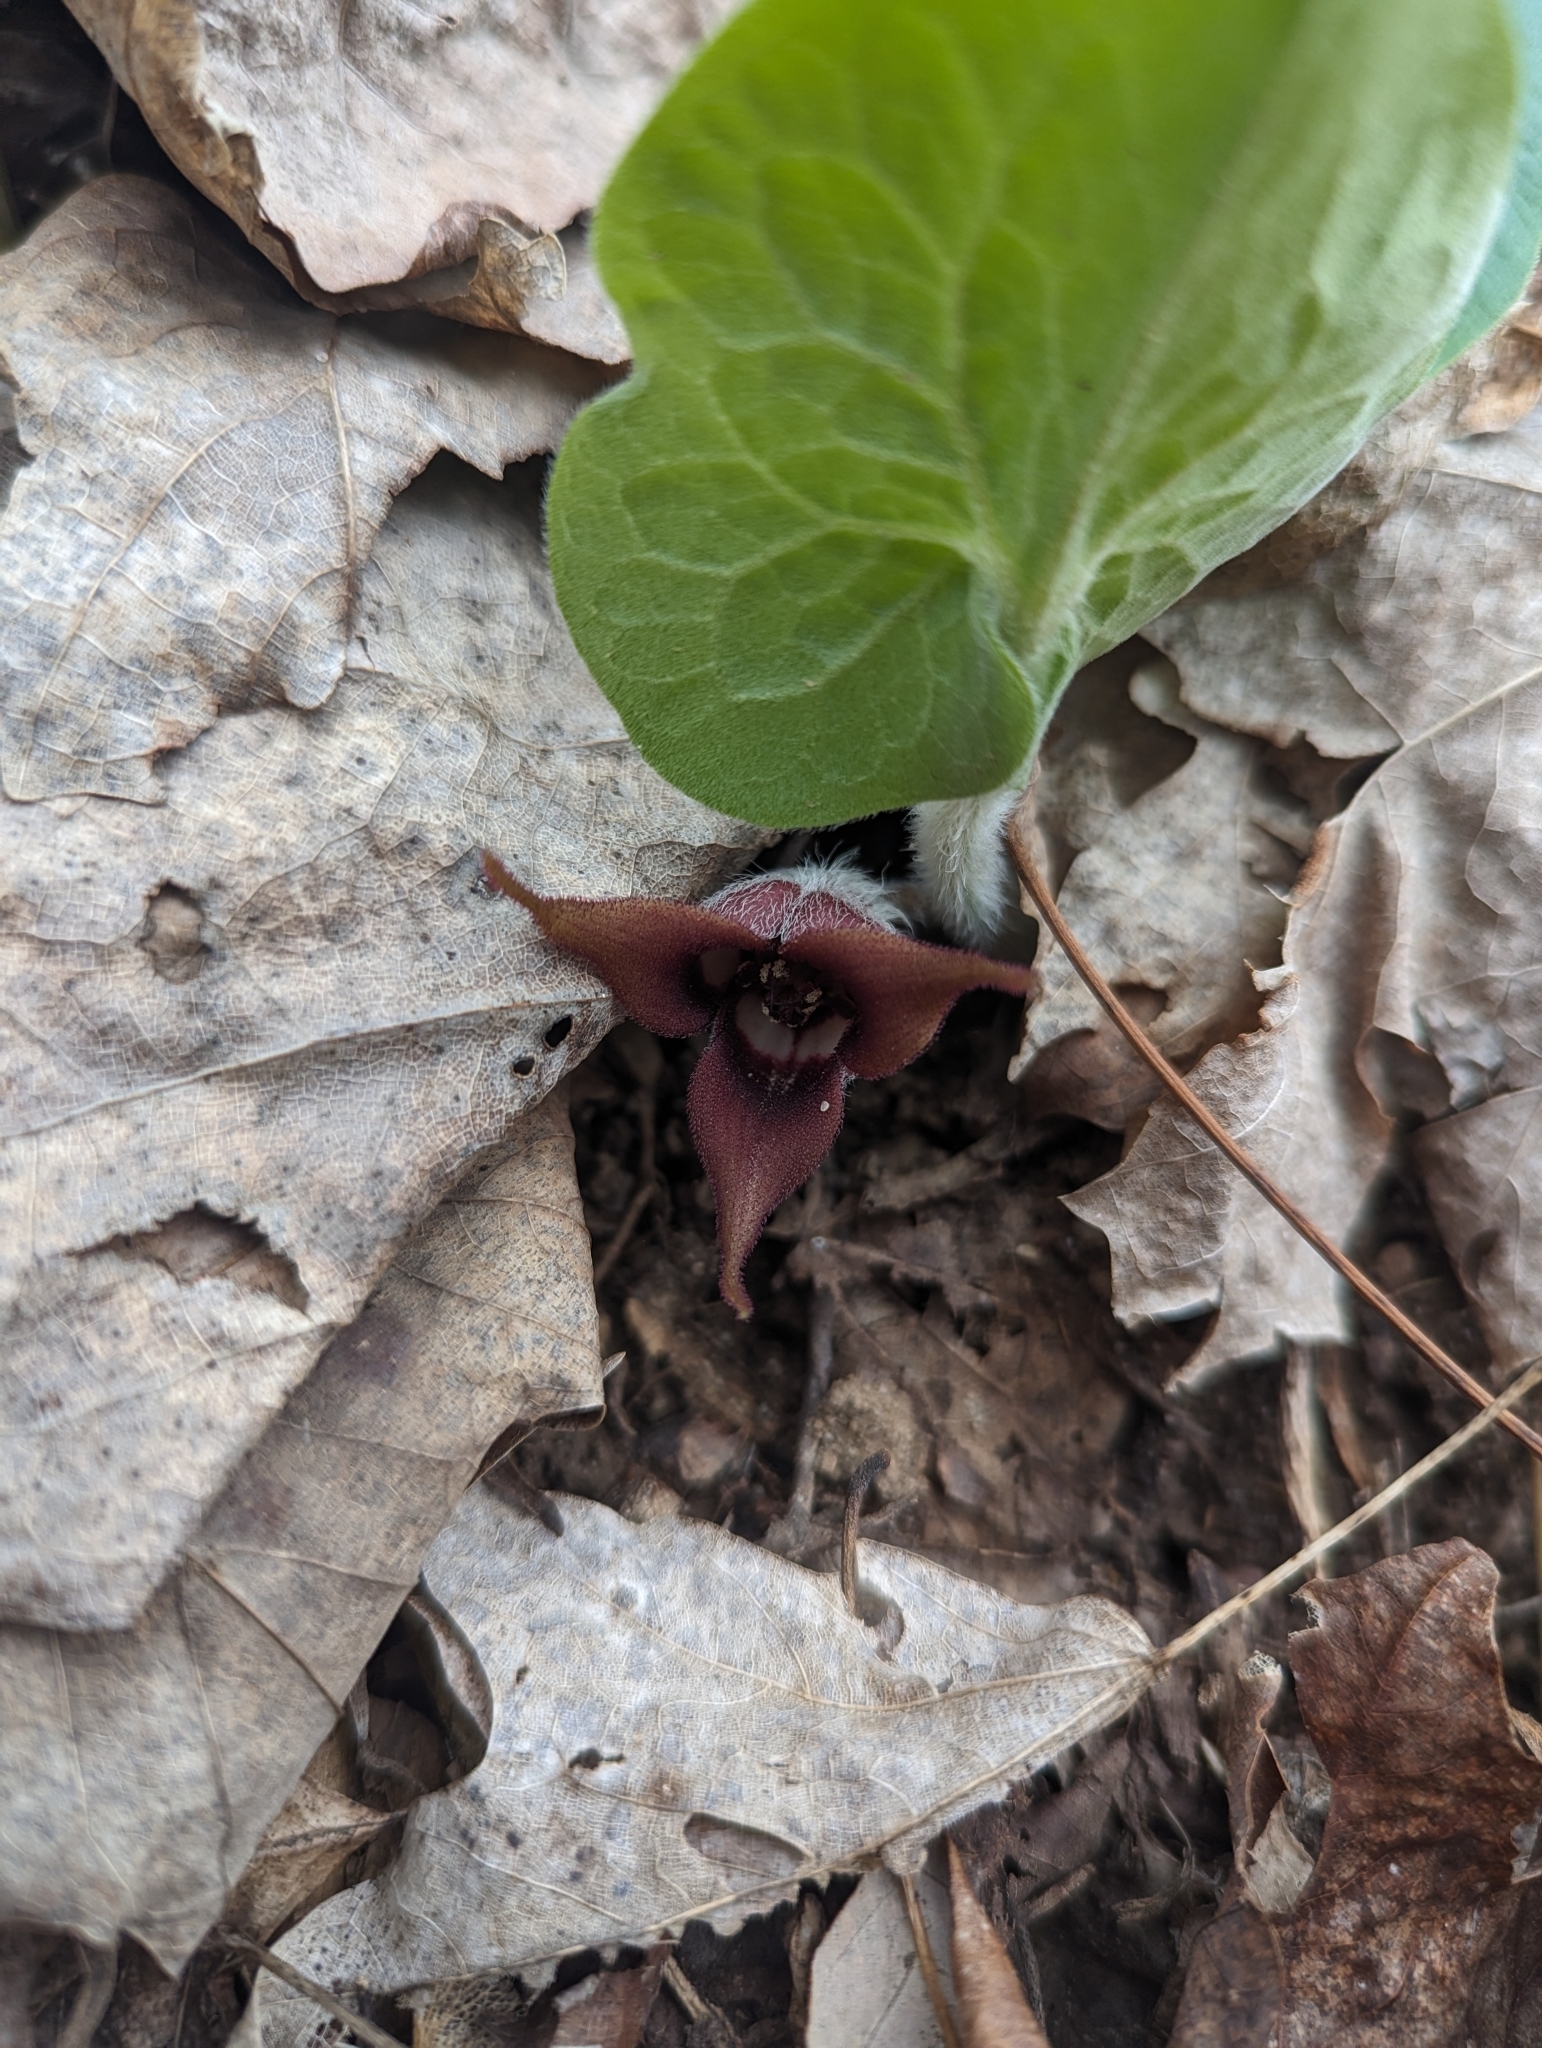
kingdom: Plantae
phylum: Tracheophyta
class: Magnoliopsida
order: Piperales
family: Aristolochiaceae
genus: Asarum
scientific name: Asarum canadense
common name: Wild ginger
